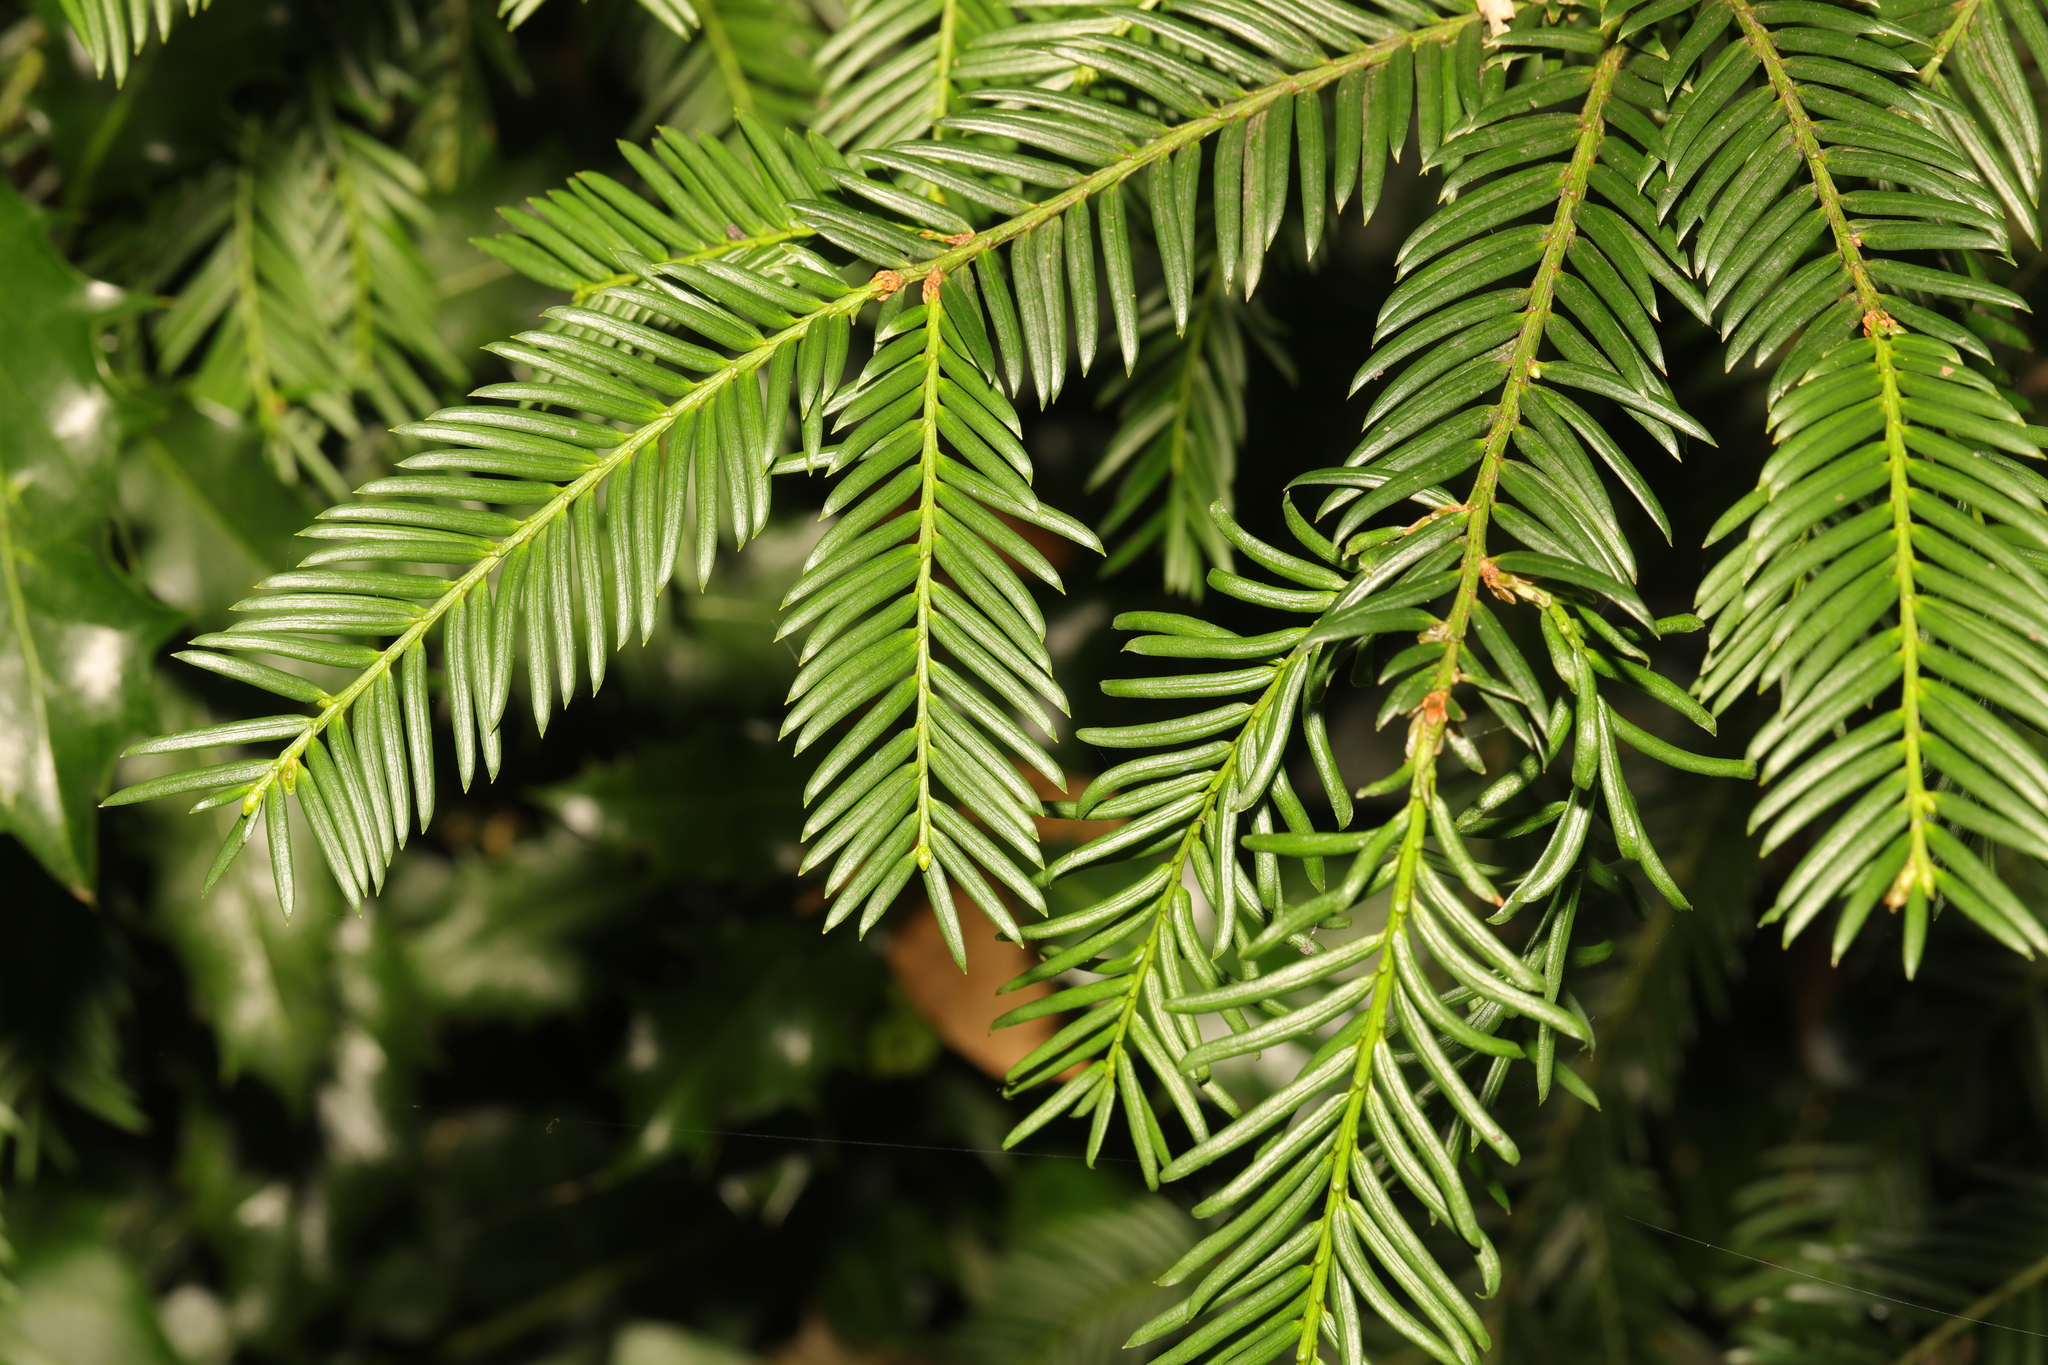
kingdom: Plantae
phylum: Tracheophyta
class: Pinopsida
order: Pinales
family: Taxaceae
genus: Taxus
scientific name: Taxus baccata
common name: Yew
